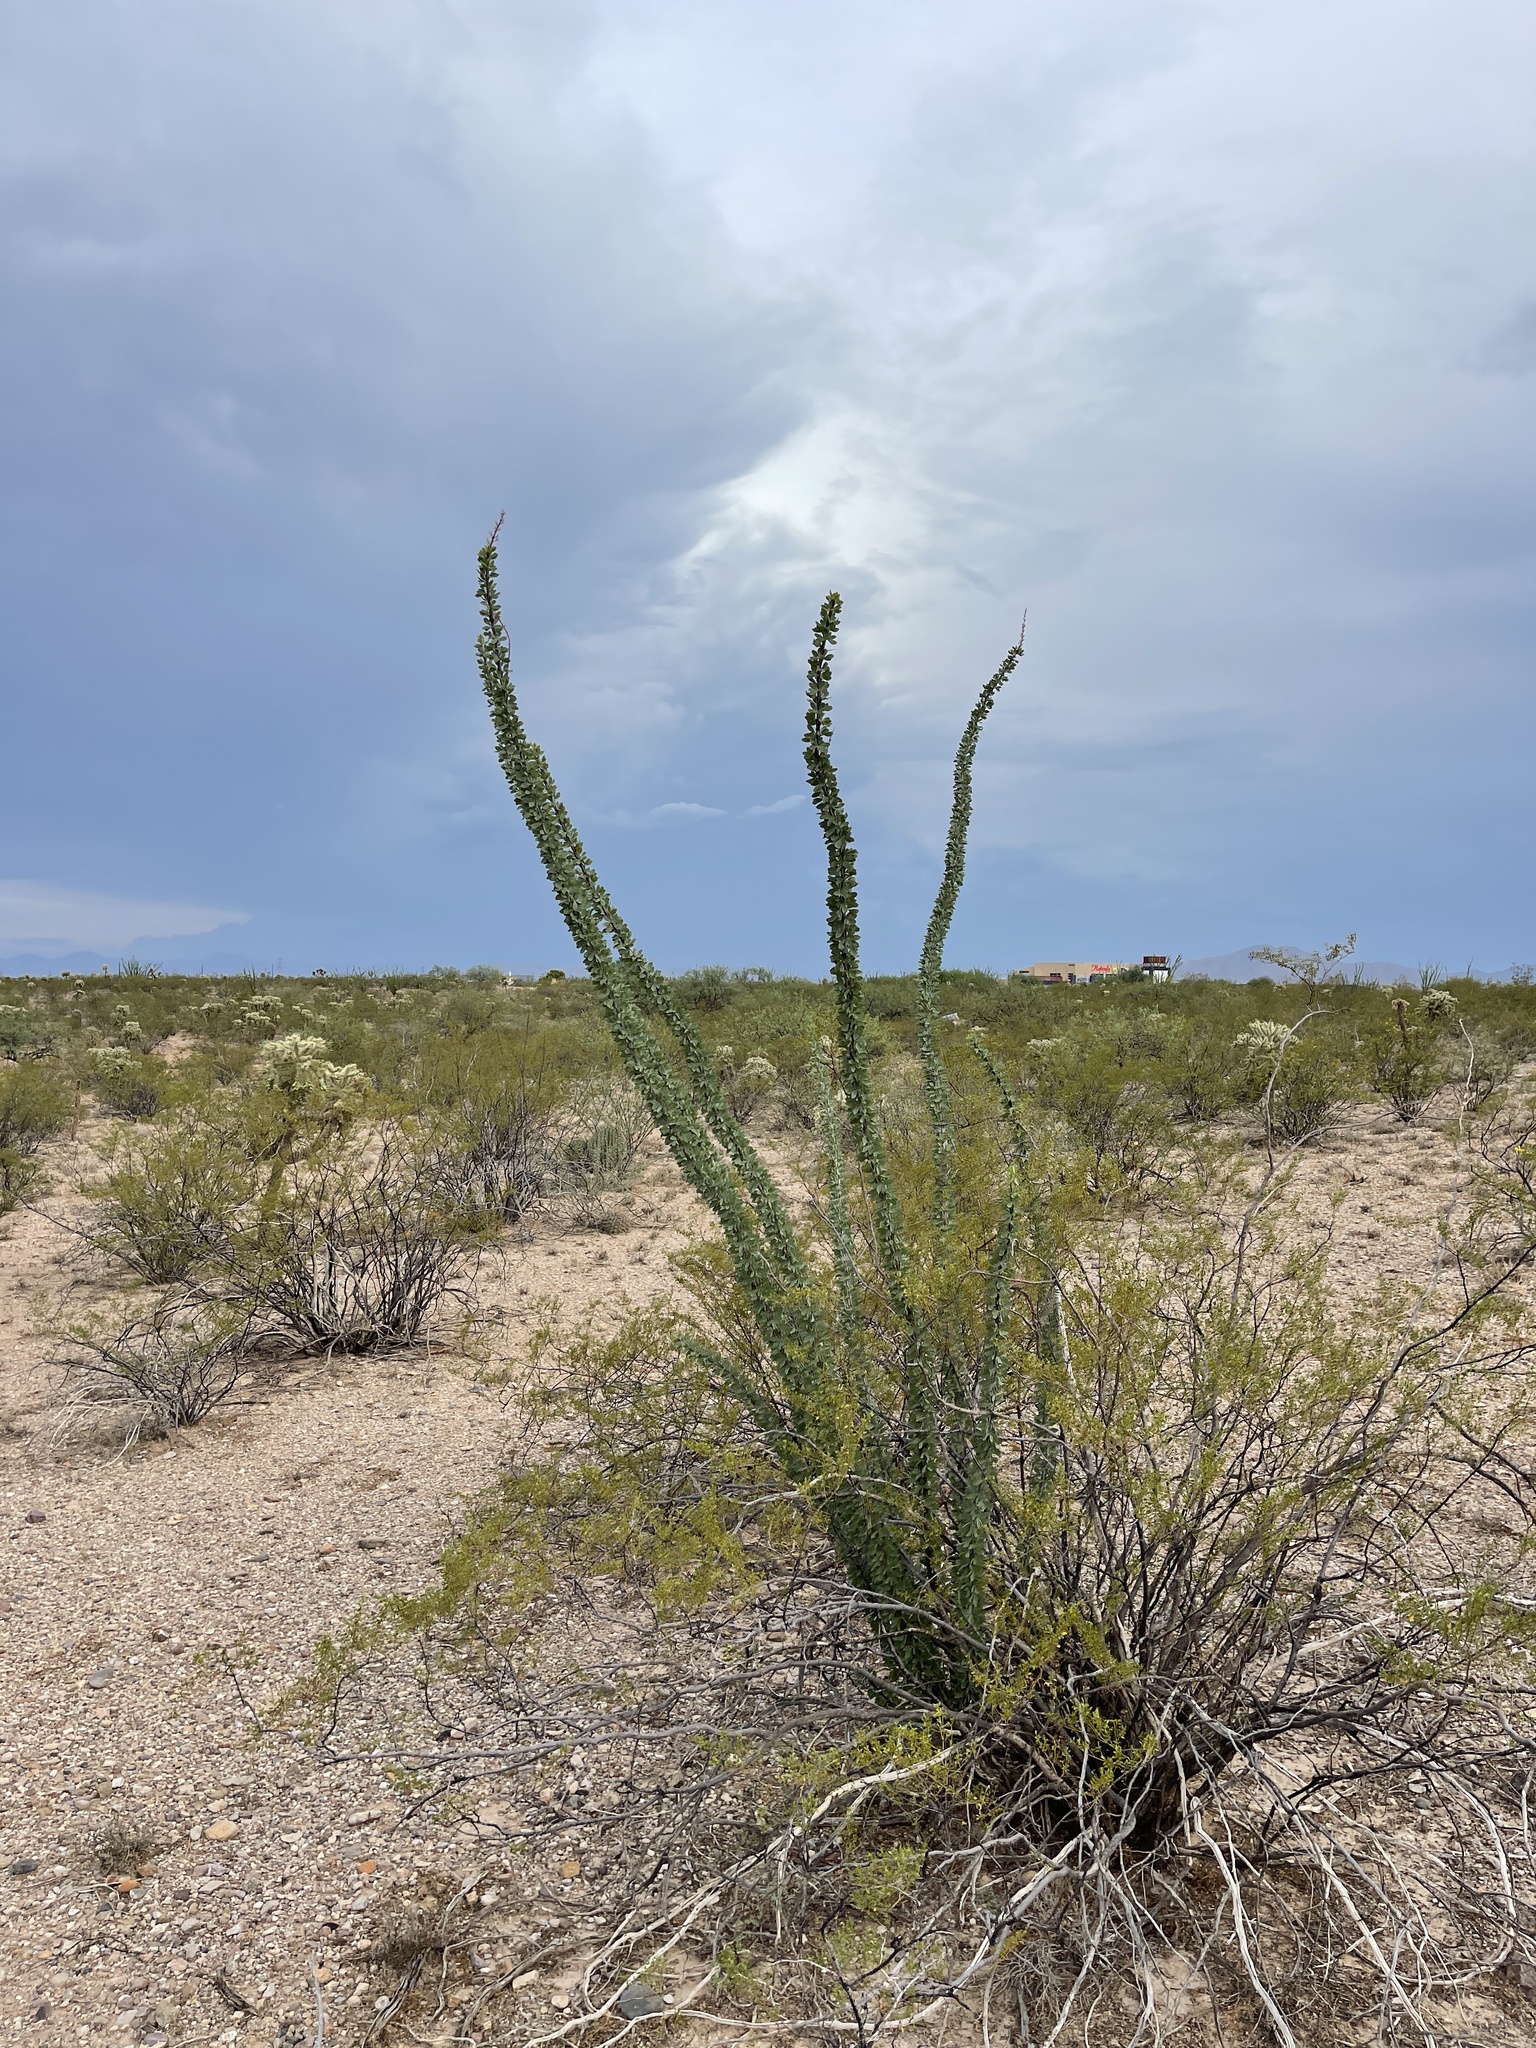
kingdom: Plantae
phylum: Tracheophyta
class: Magnoliopsida
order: Ericales
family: Fouquieriaceae
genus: Fouquieria
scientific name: Fouquieria splendens
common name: Vine-cactus
